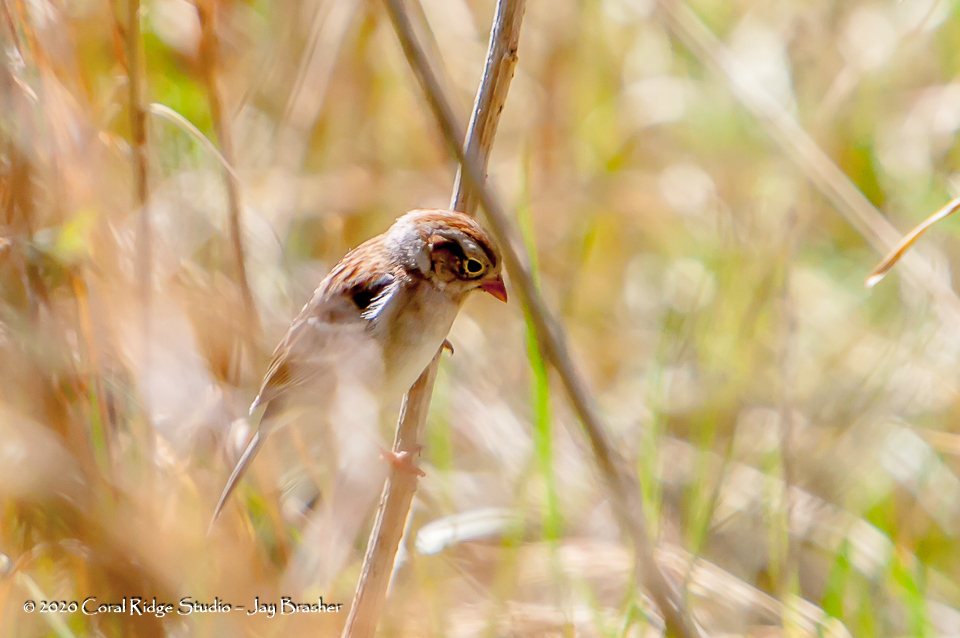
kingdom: Animalia
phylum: Chordata
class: Aves
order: Passeriformes
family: Passerellidae
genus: Spizella
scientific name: Spizella pusilla
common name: Field sparrow
